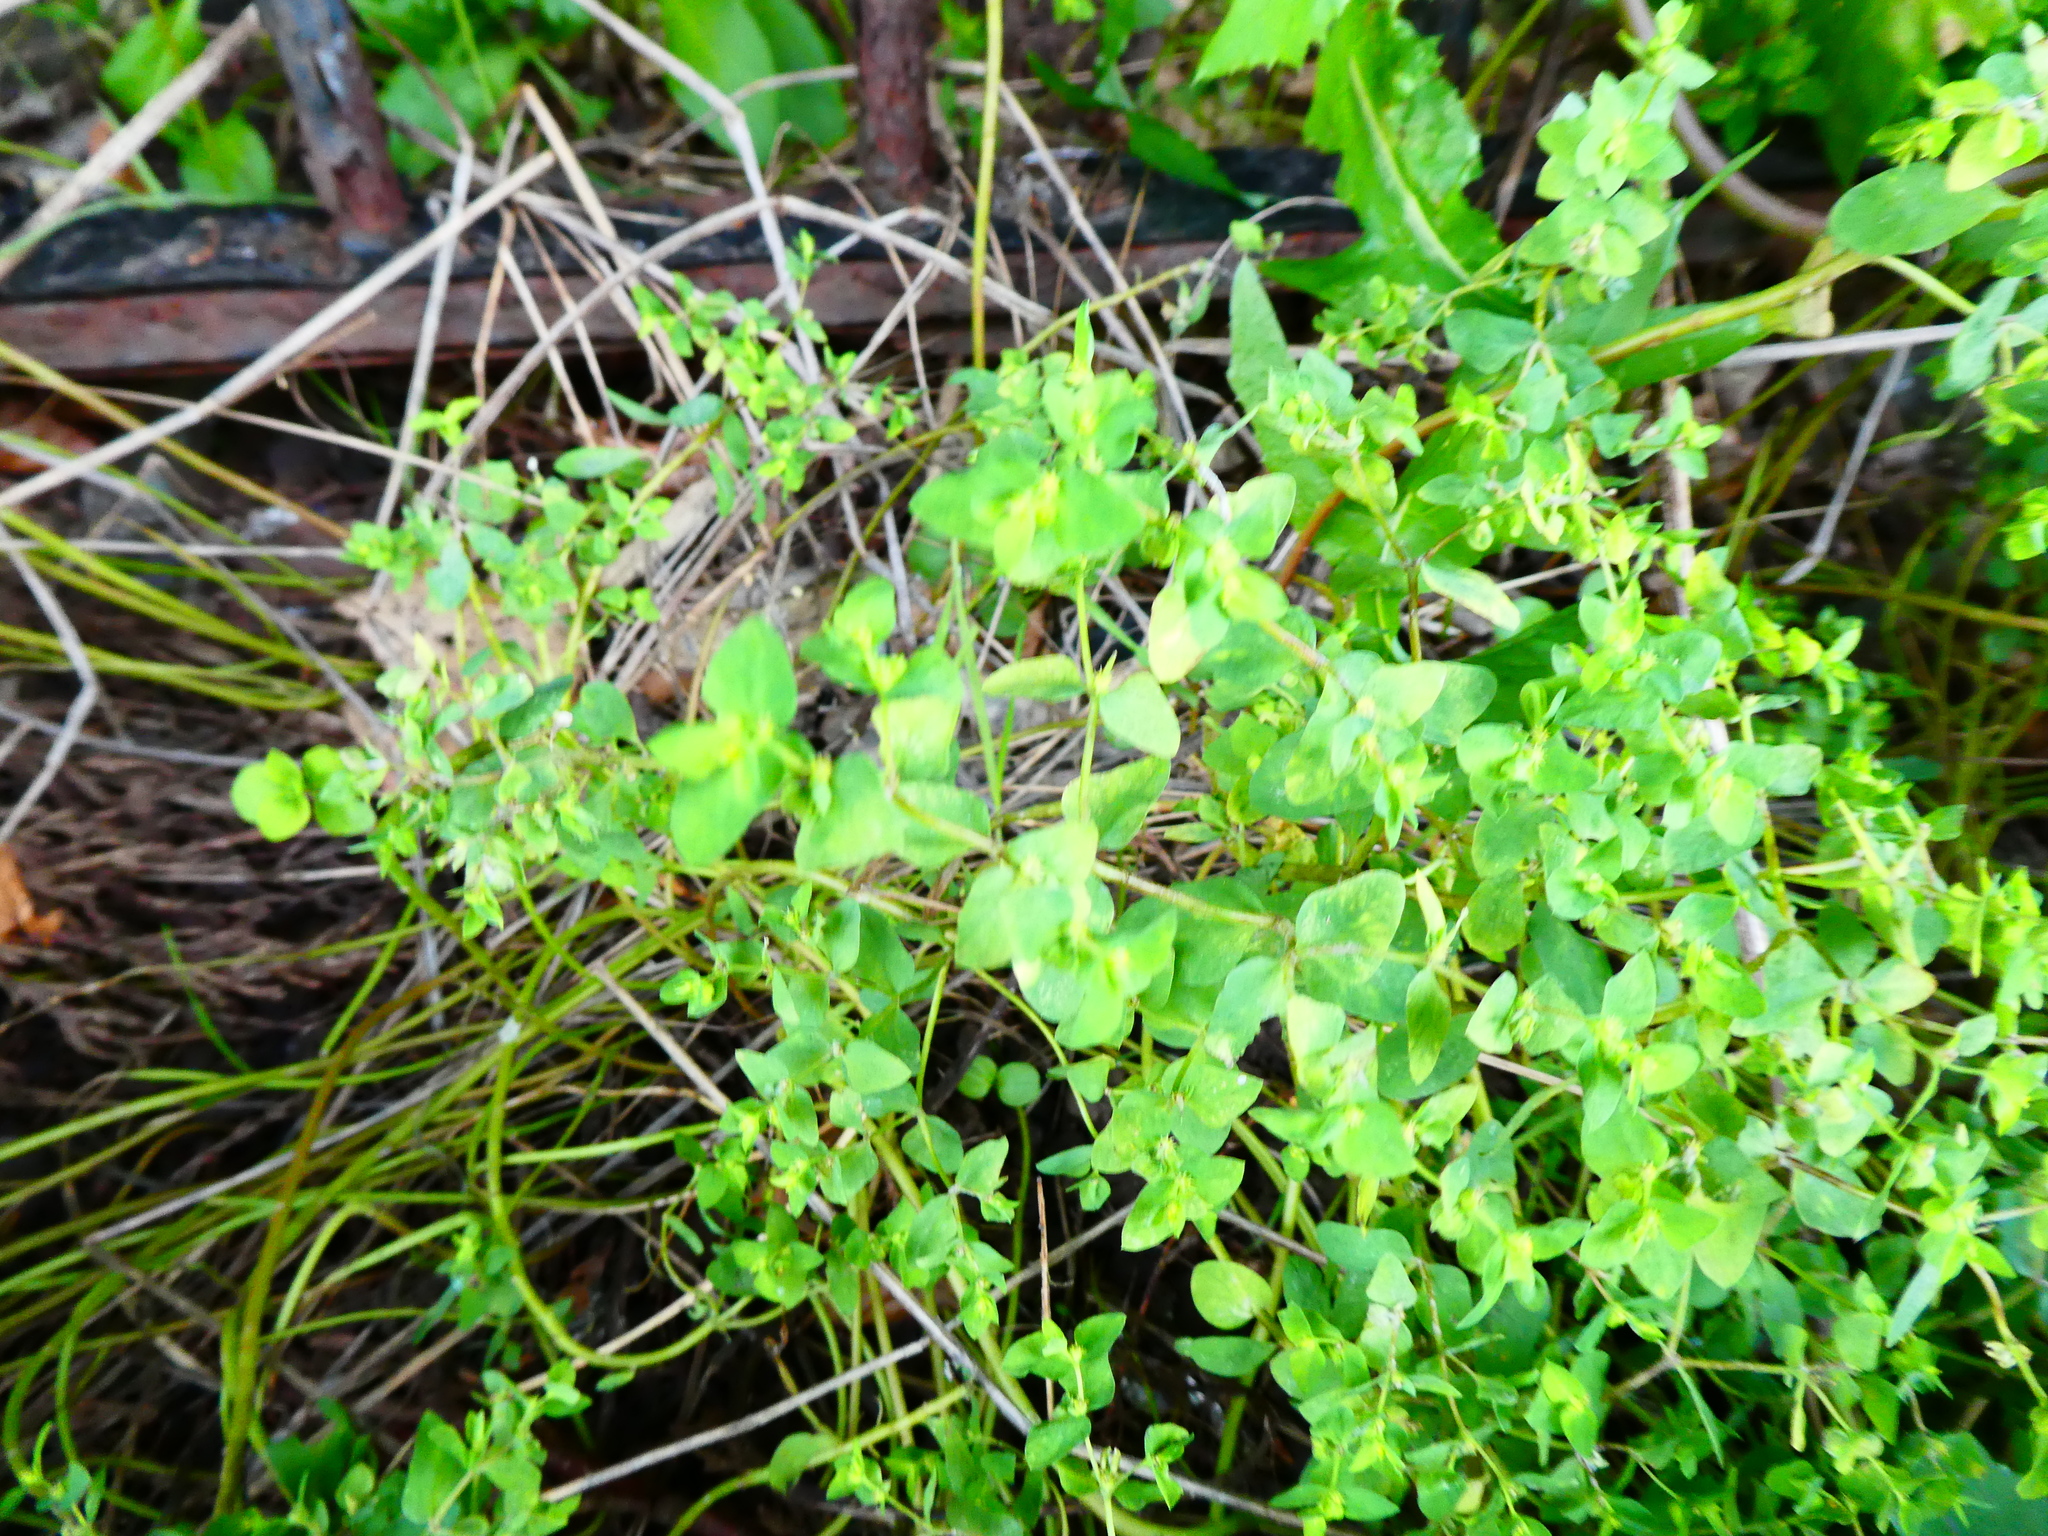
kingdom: Plantae
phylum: Tracheophyta
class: Magnoliopsida
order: Malpighiales
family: Euphorbiaceae
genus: Euphorbia
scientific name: Euphorbia peplus
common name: Petty spurge
